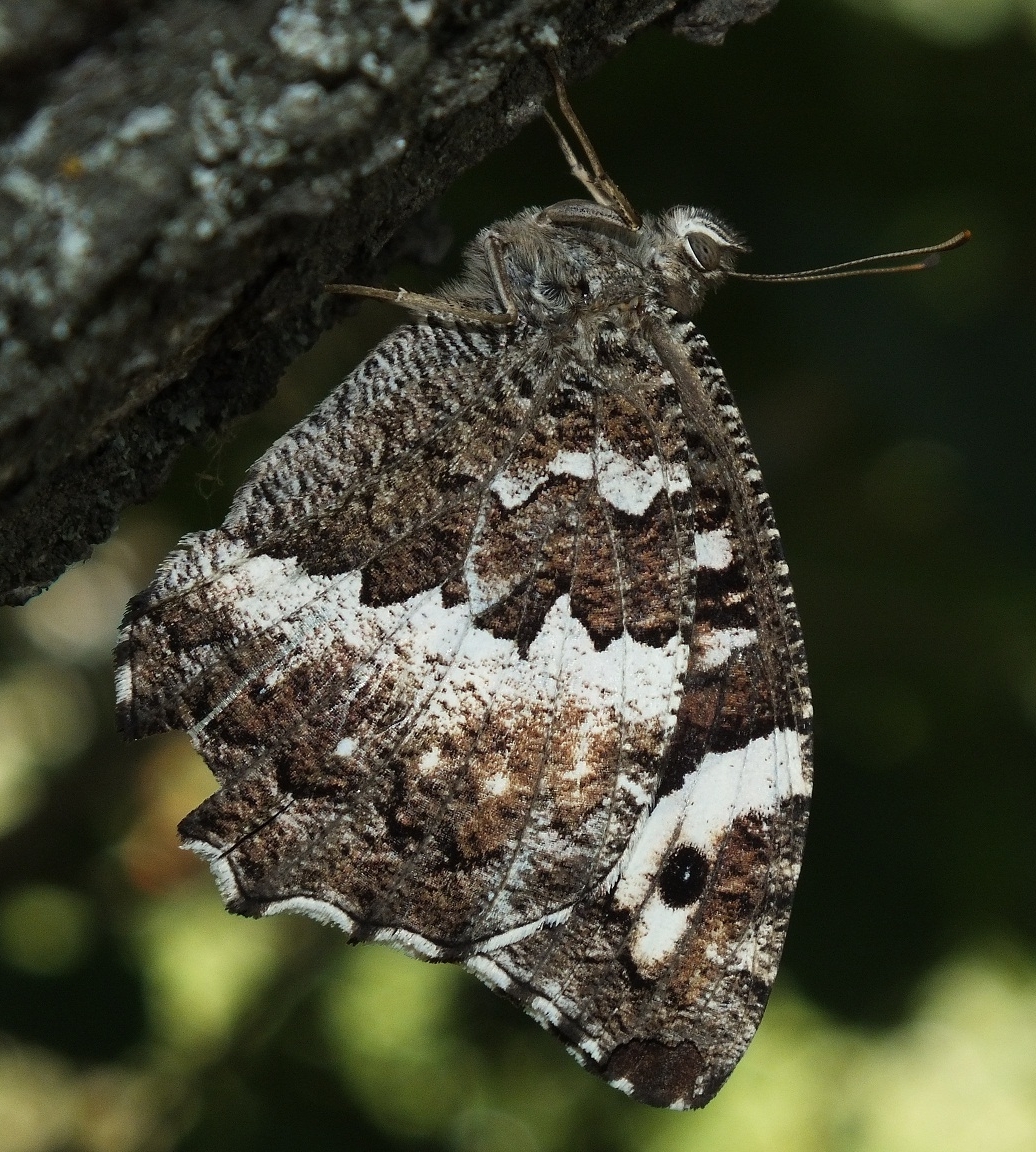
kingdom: Animalia
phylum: Arthropoda
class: Insecta
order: Lepidoptera
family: Lycaenidae
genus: Loweia
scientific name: Loweia tityrus
